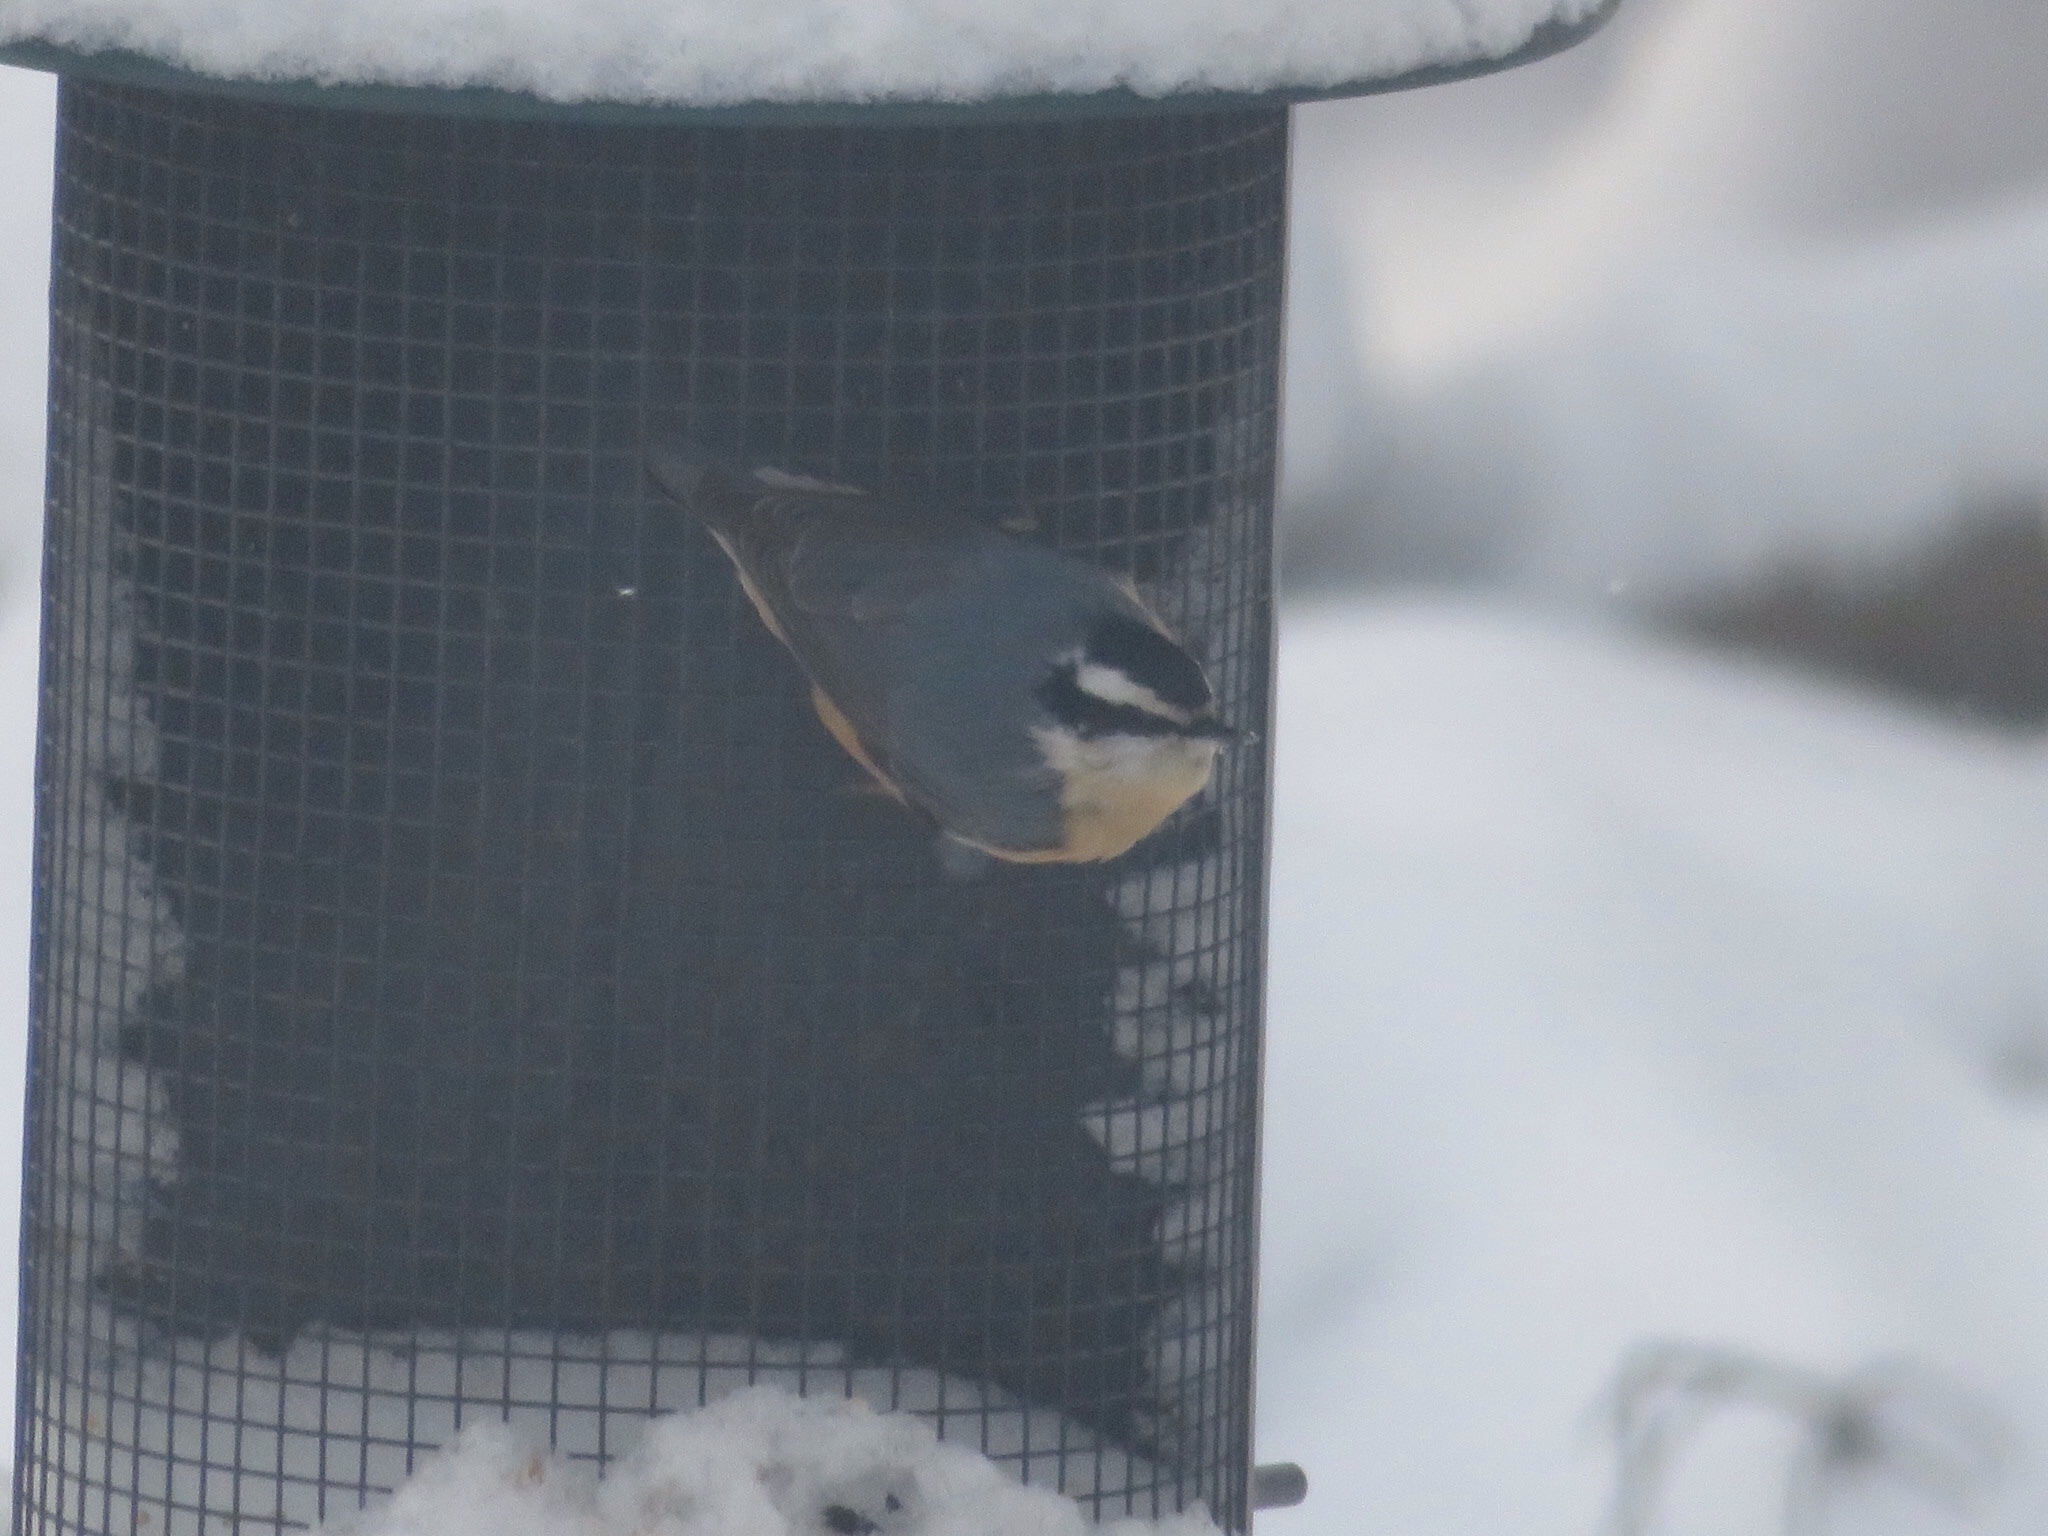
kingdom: Animalia
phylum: Chordata
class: Aves
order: Passeriformes
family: Sittidae
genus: Sitta
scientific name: Sitta canadensis
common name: Red-breasted nuthatch
